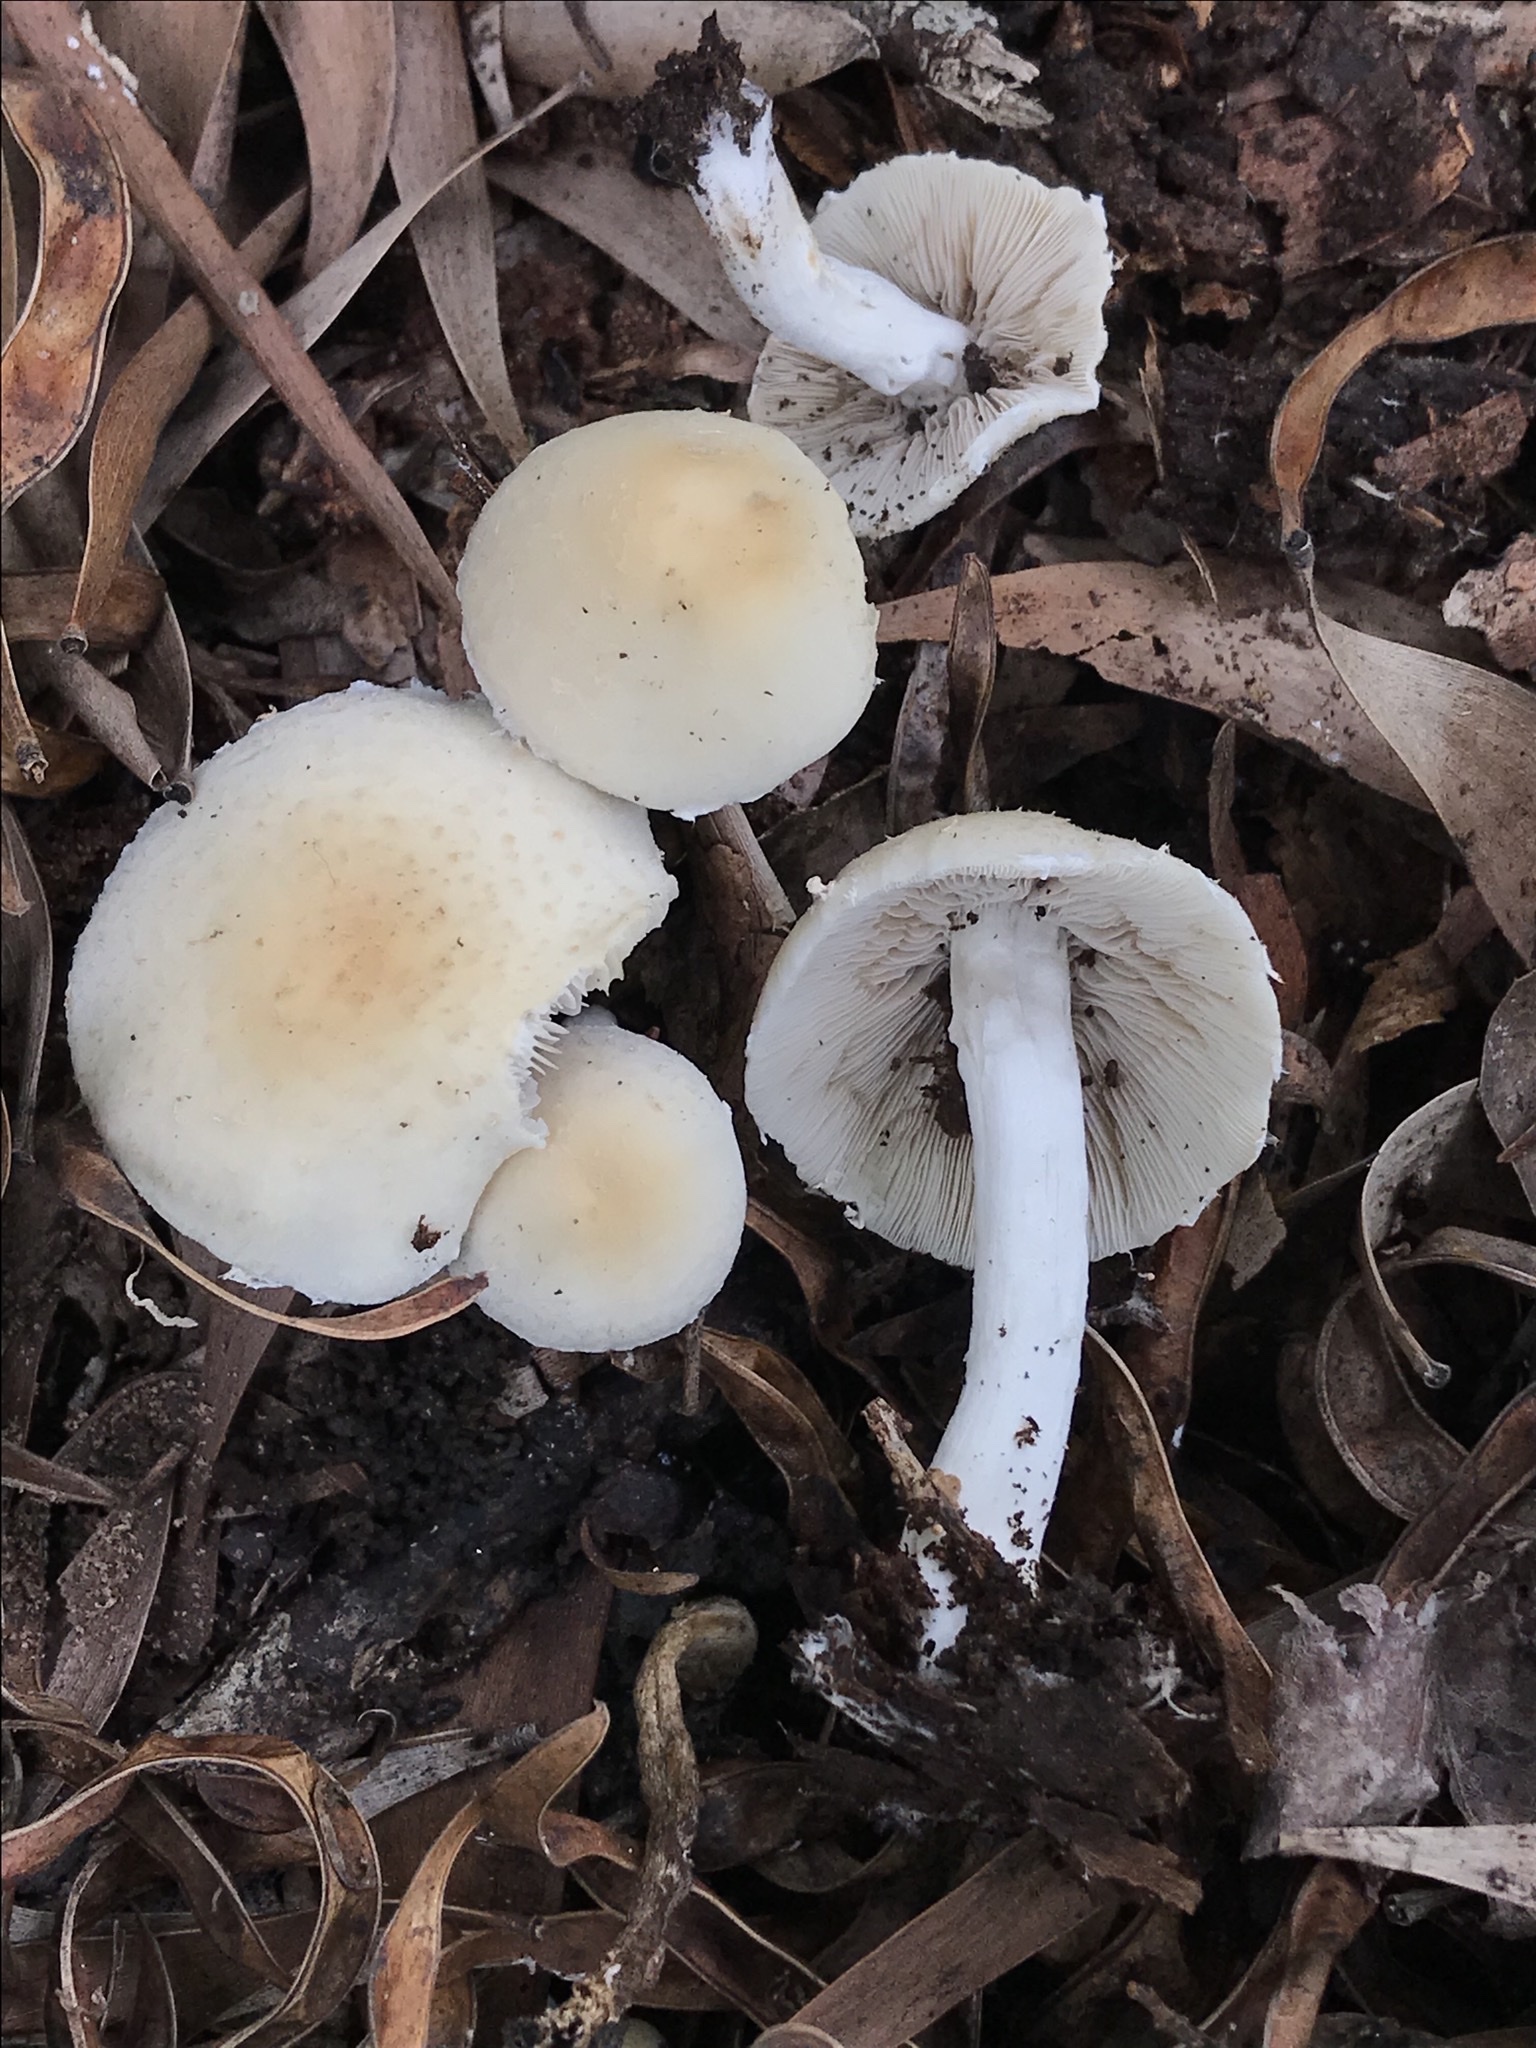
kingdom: Fungi
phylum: Basidiomycota
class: Agaricomycetes
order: Agaricales
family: Psathyrellaceae
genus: Candolleomyces
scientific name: Candolleomyces candolleanus
